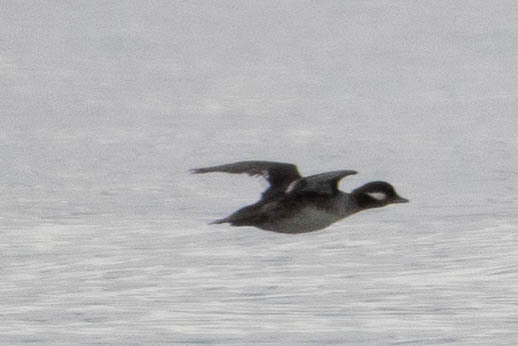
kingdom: Animalia
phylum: Chordata
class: Aves
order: Anseriformes
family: Anatidae
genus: Bucephala
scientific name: Bucephala albeola
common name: Bufflehead
